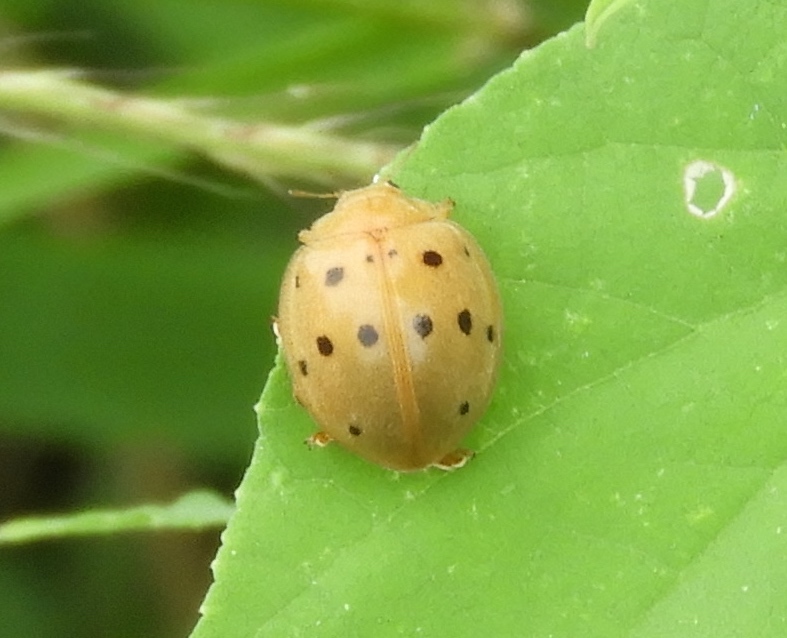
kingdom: Animalia
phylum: Arthropoda
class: Insecta
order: Coleoptera
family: Coccinellidae
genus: Epilachna
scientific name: Epilachna tredecimnotata
